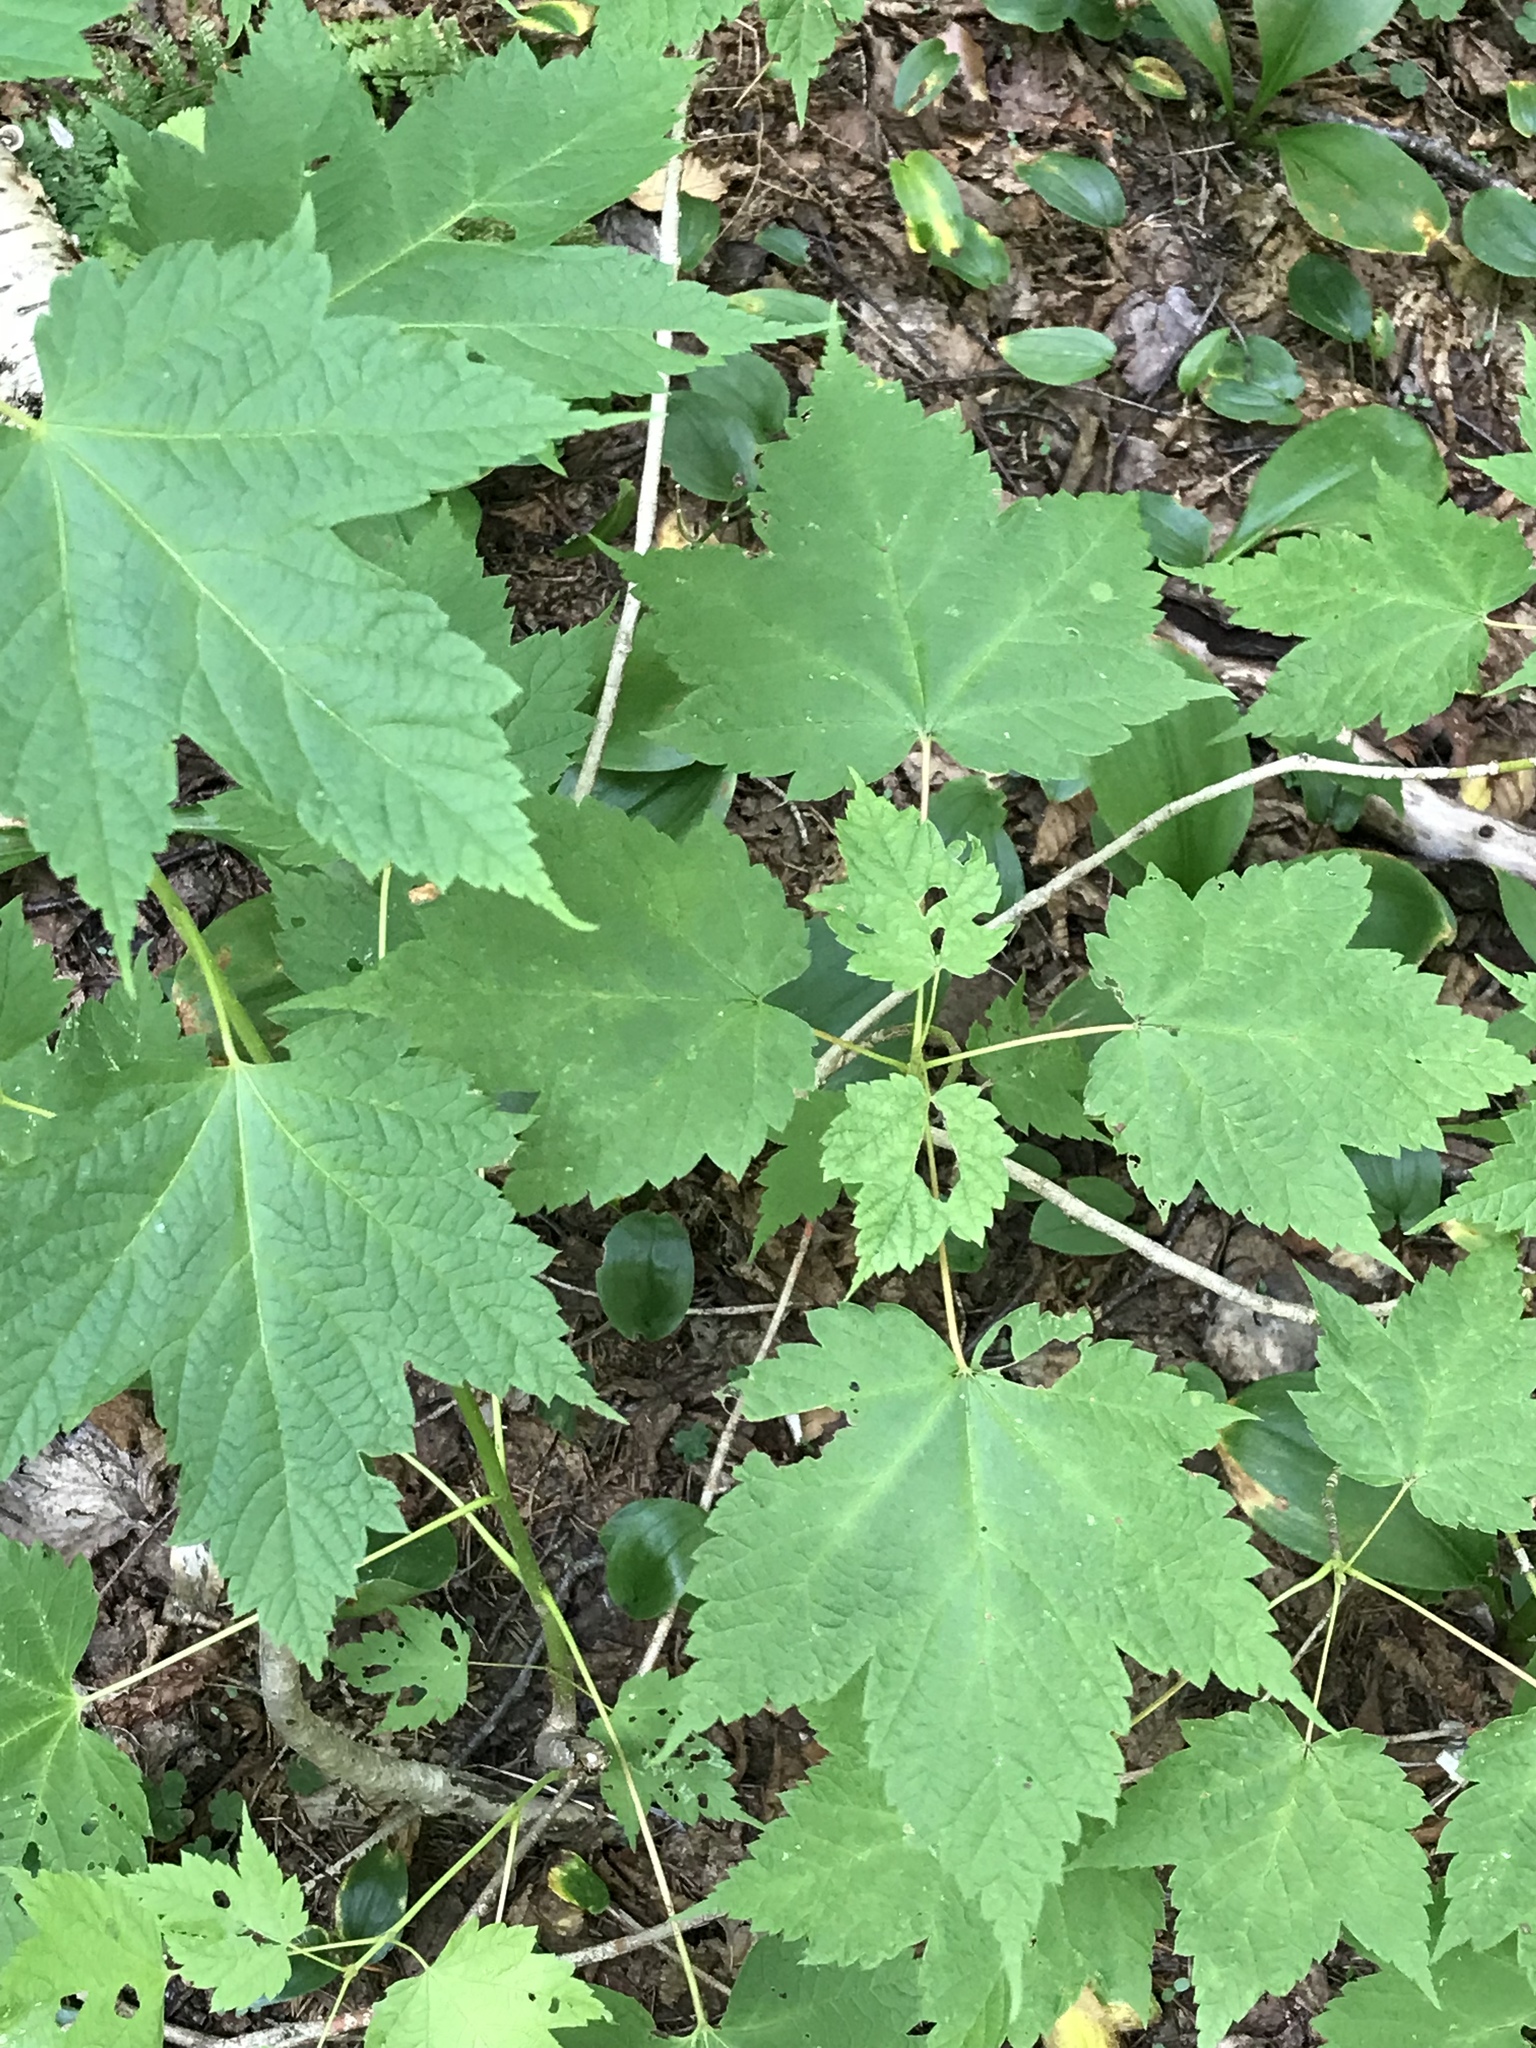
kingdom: Plantae
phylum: Tracheophyta
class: Magnoliopsida
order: Sapindales
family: Sapindaceae
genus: Acer
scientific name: Acer spicatum
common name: Mountain maple
